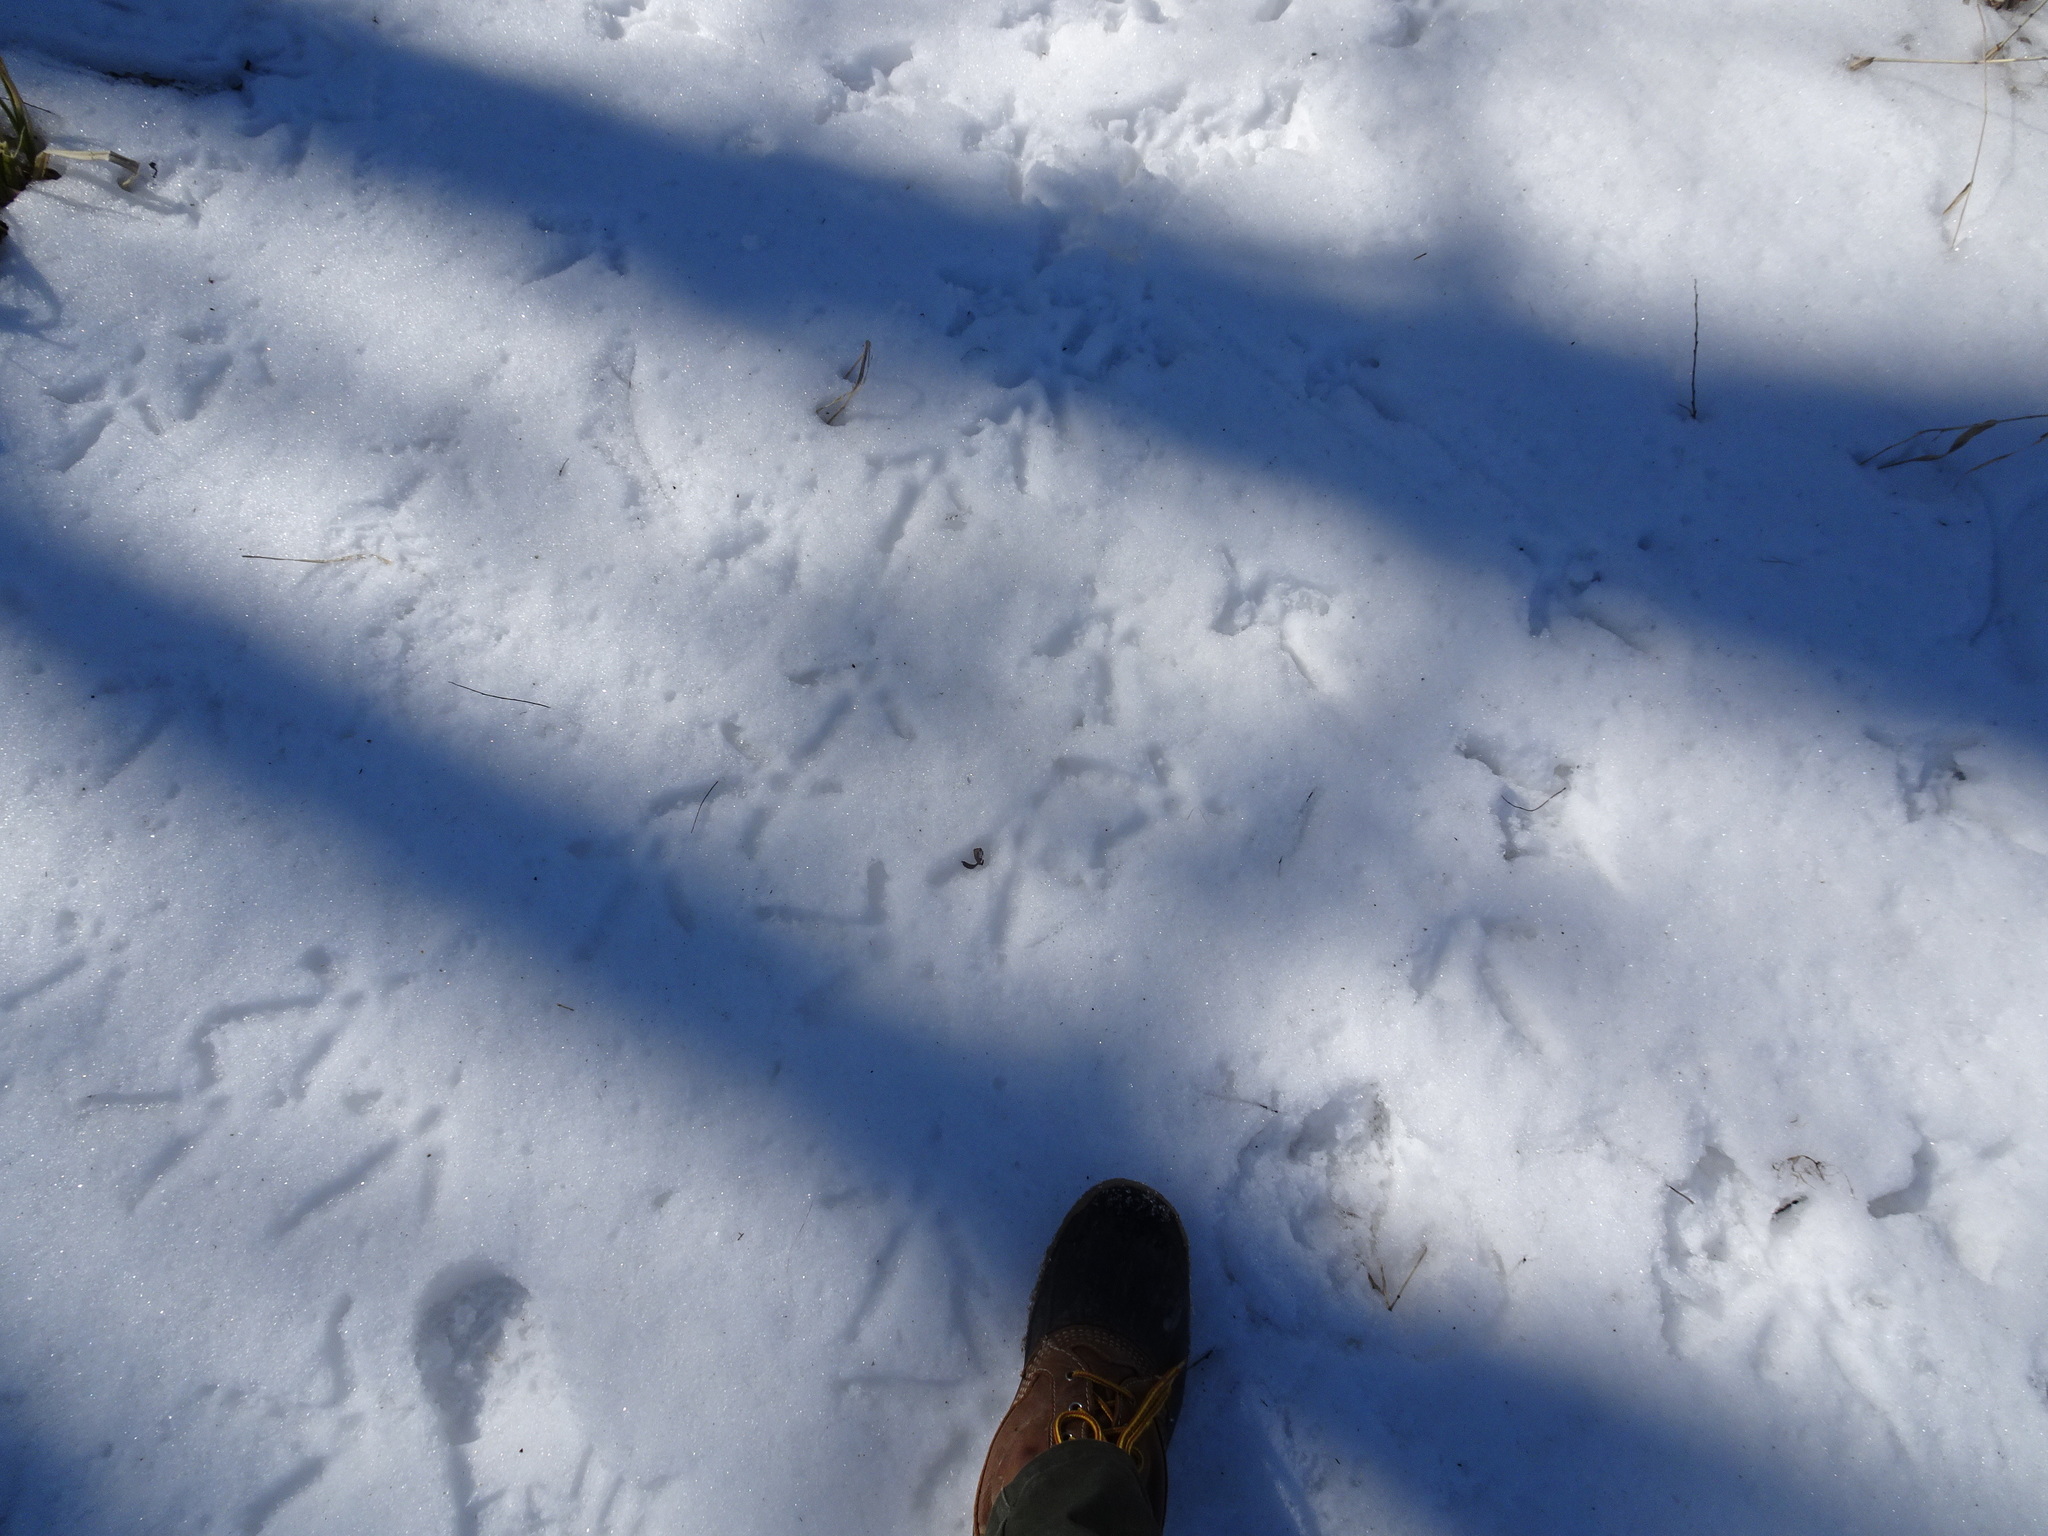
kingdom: Animalia
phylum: Chordata
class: Aves
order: Galliformes
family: Phasianidae
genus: Meleagris
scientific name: Meleagris gallopavo
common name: Wild turkey
